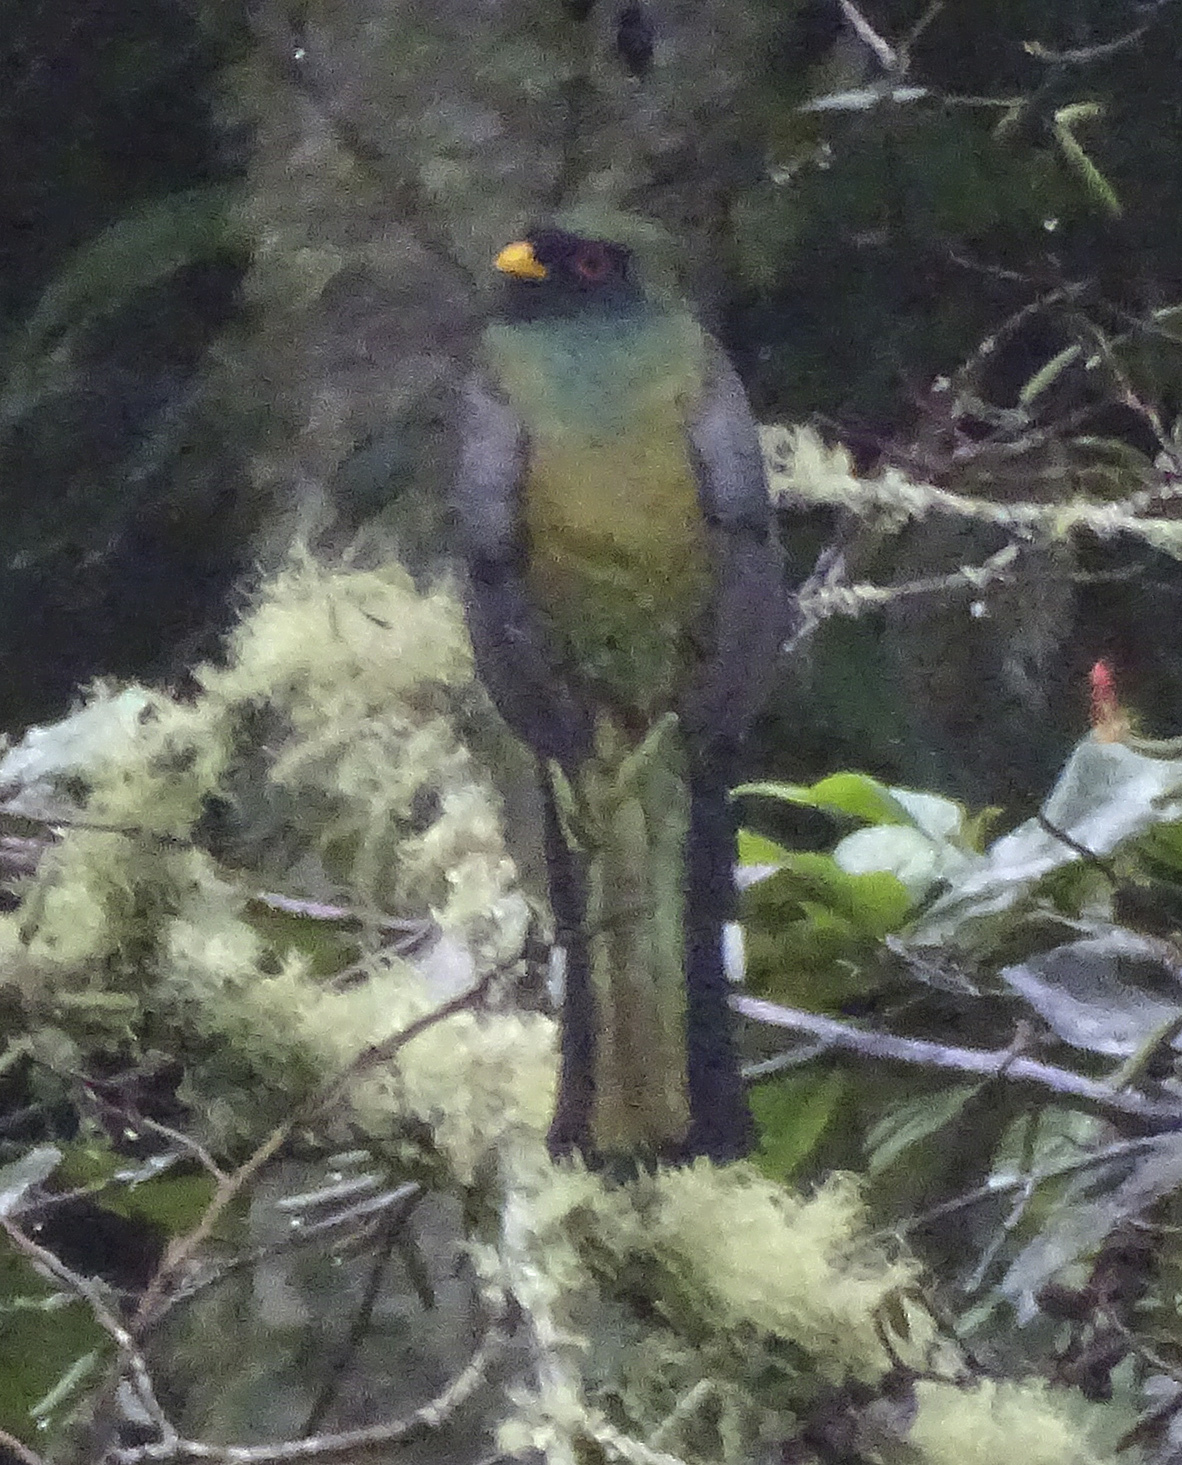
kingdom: Animalia
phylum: Chordata
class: Aves
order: Trogoniformes
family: Trogonidae
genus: Trogon
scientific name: Trogon mexicanus
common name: Mountain trogon
